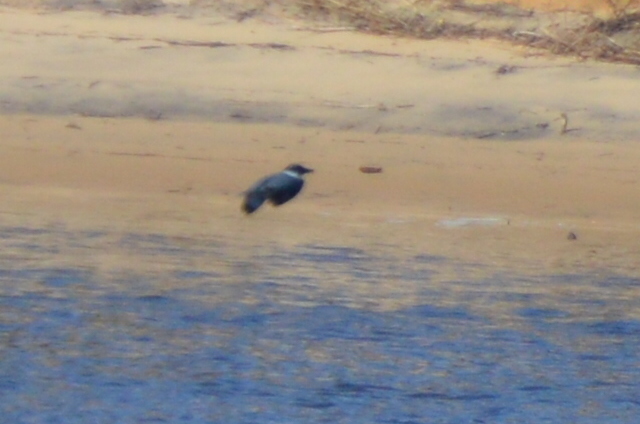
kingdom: Animalia
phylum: Chordata
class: Aves
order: Coraciiformes
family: Alcedinidae
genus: Megaceryle
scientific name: Megaceryle alcyon
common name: Belted kingfisher
